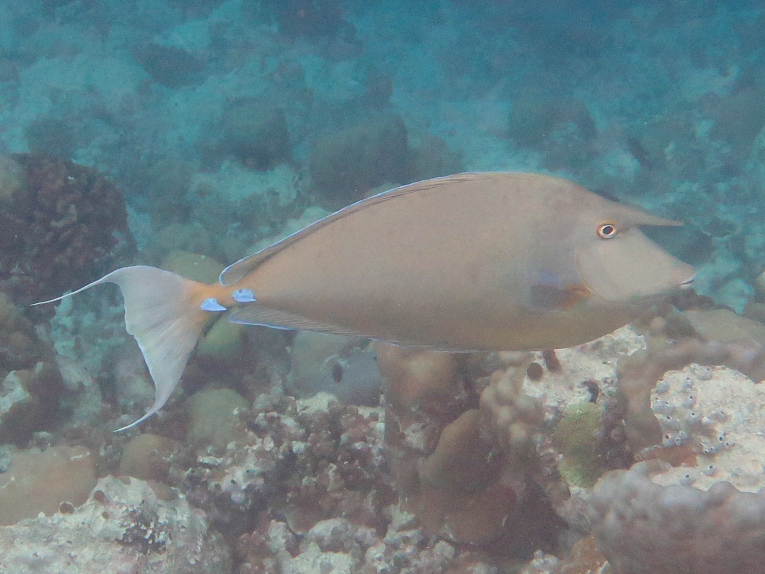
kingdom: Animalia
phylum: Chordata
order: Perciformes
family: Acanthuridae
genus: Naso
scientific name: Naso unicornis
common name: Bluespine unicornfish
